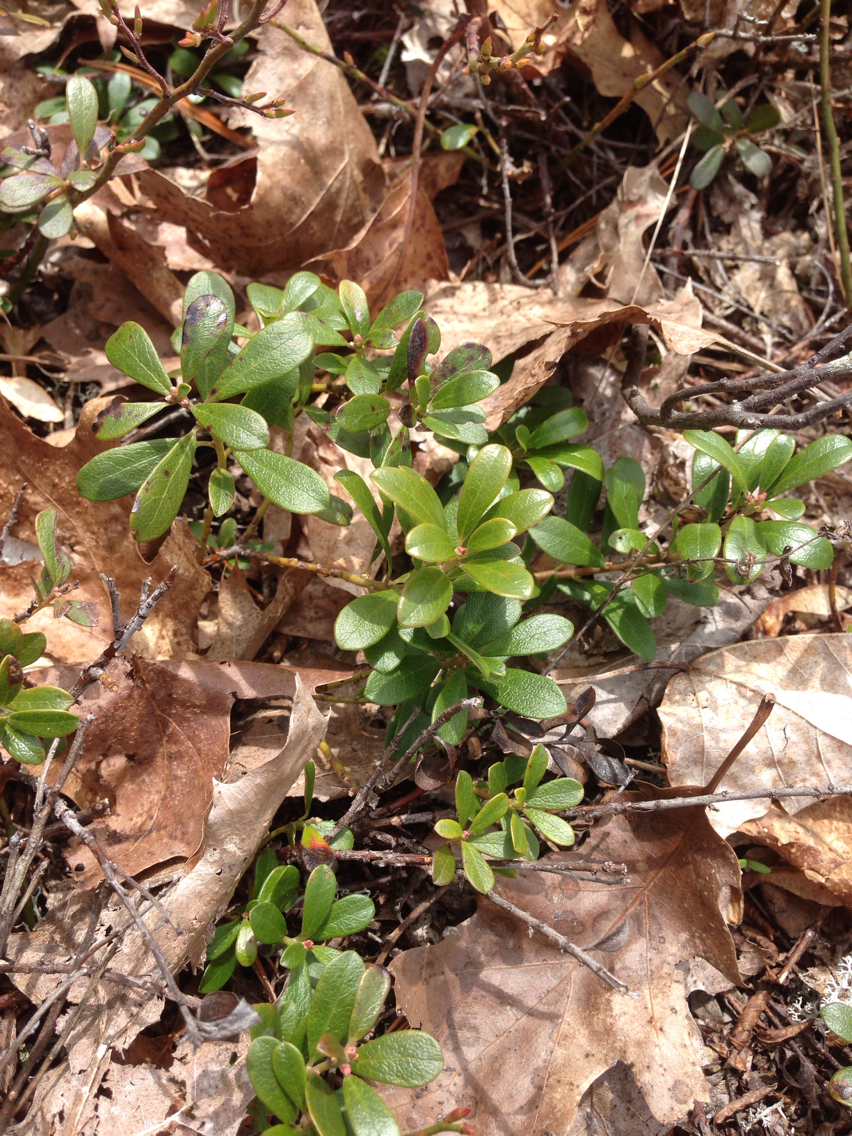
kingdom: Plantae
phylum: Tracheophyta
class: Magnoliopsida
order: Ericales
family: Ericaceae
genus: Arctostaphylos
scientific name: Arctostaphylos uva-ursi
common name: Bearberry
